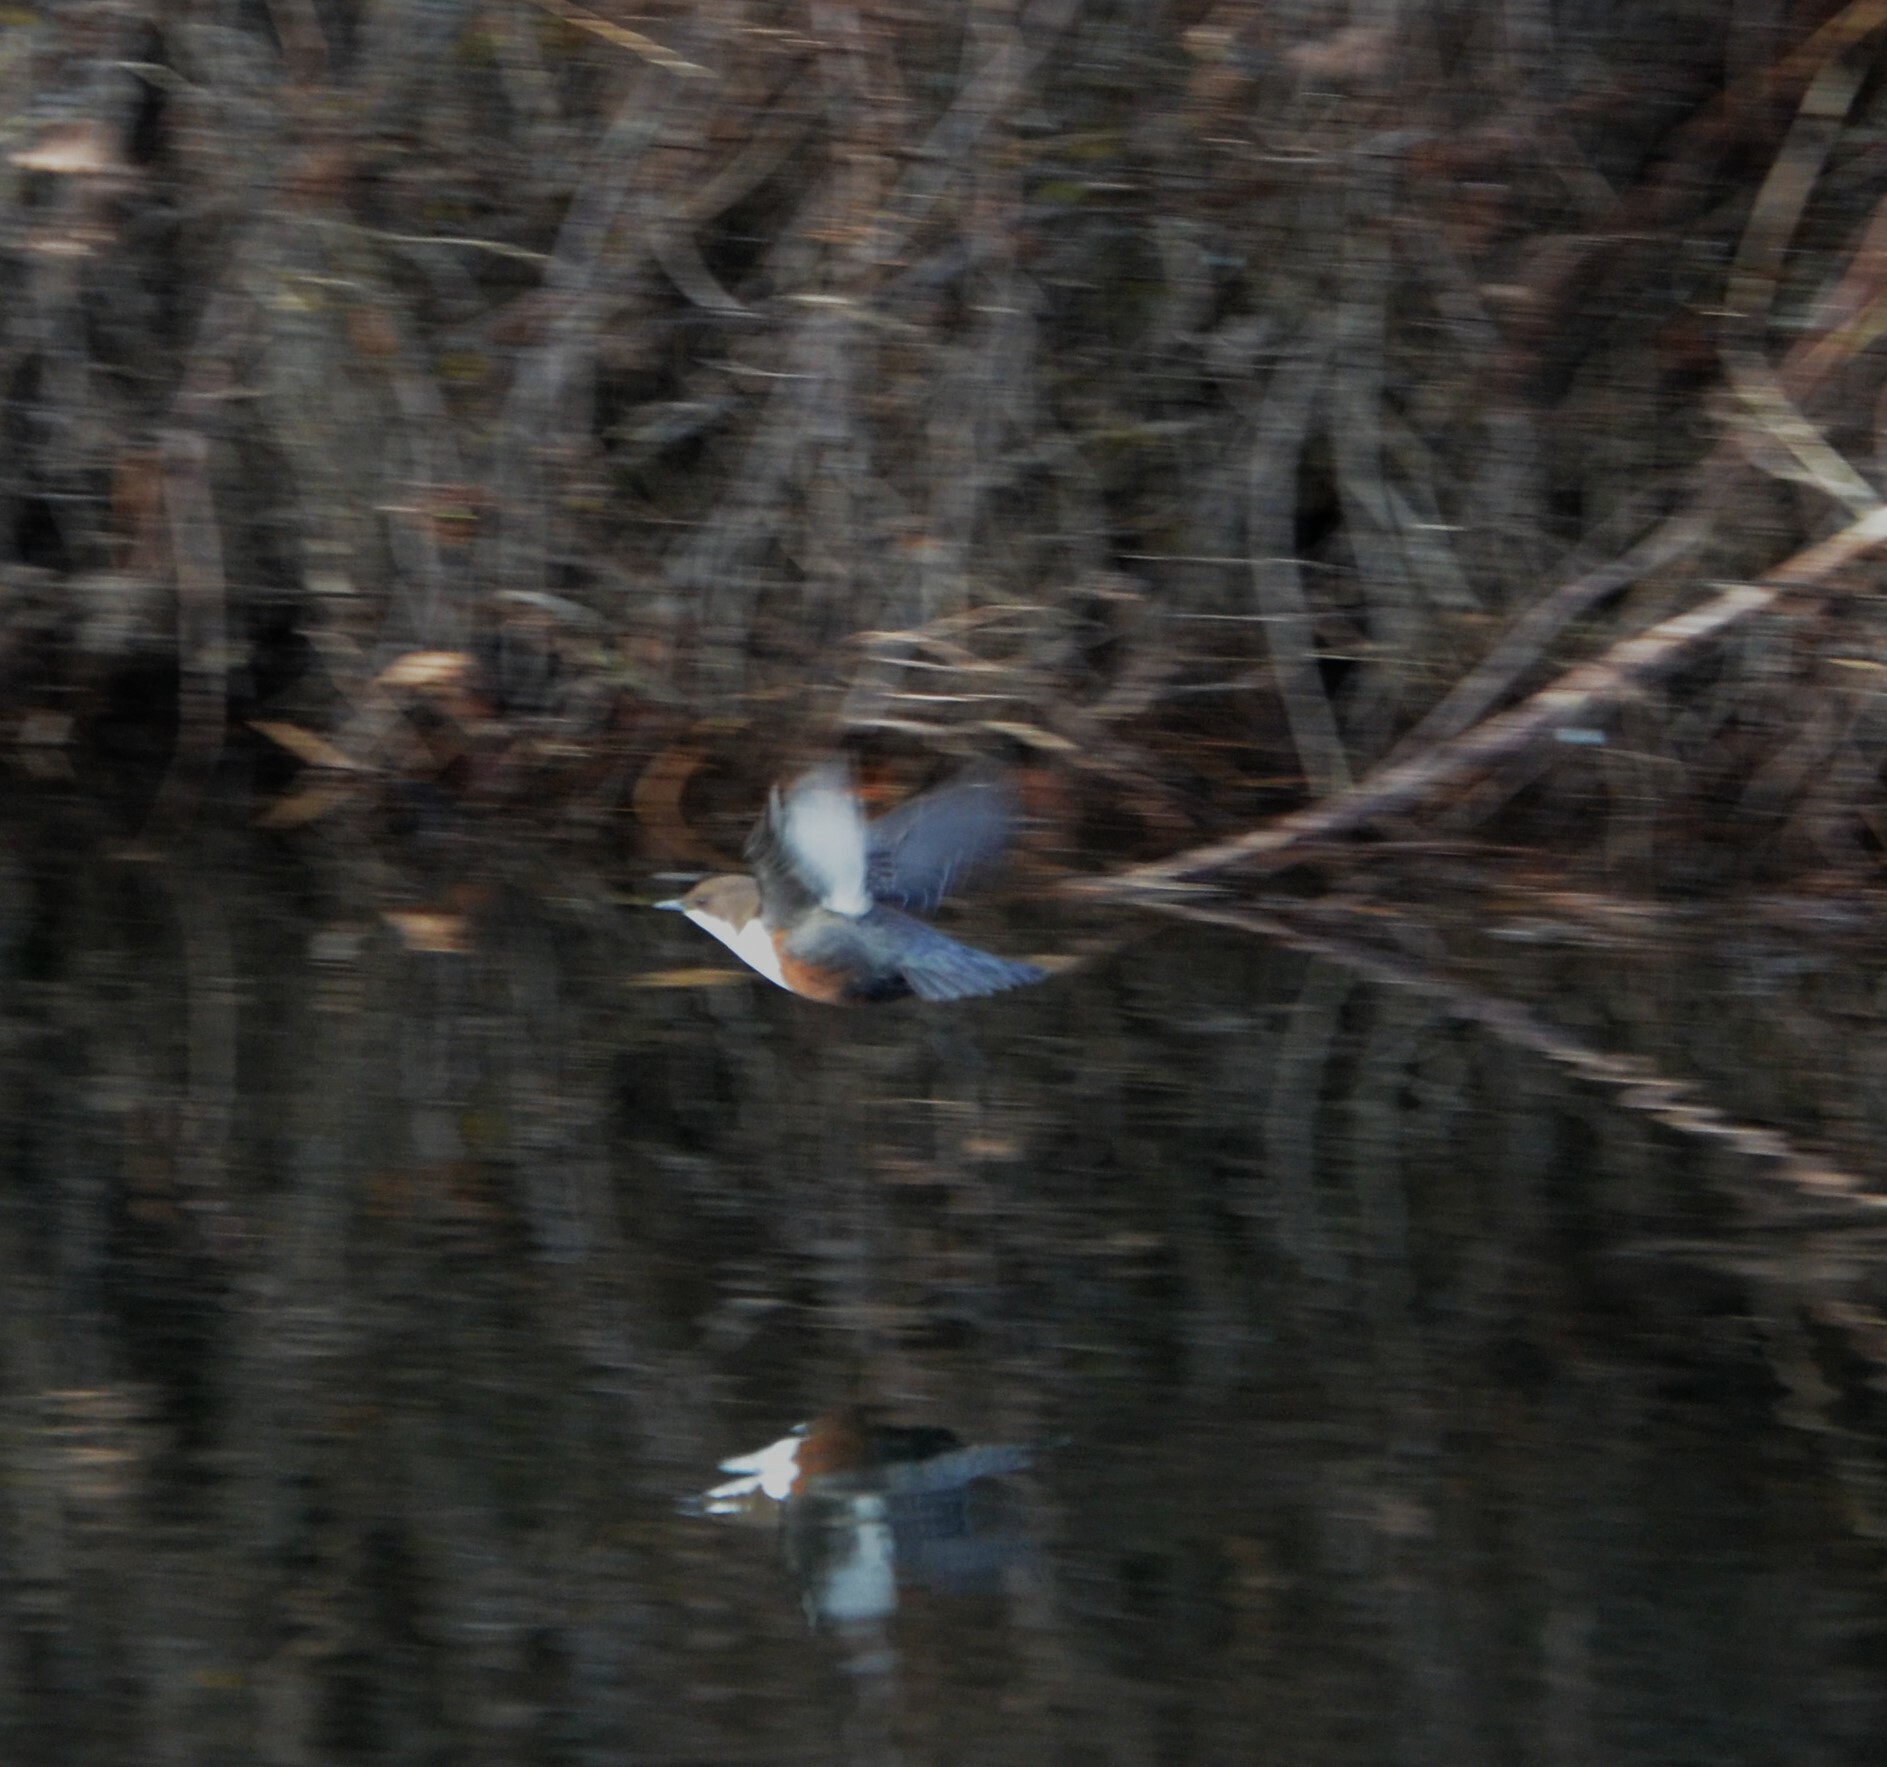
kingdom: Animalia
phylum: Chordata
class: Aves
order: Passeriformes
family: Cinclidae
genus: Cinclus
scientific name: Cinclus cinclus
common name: White-throated dipper
